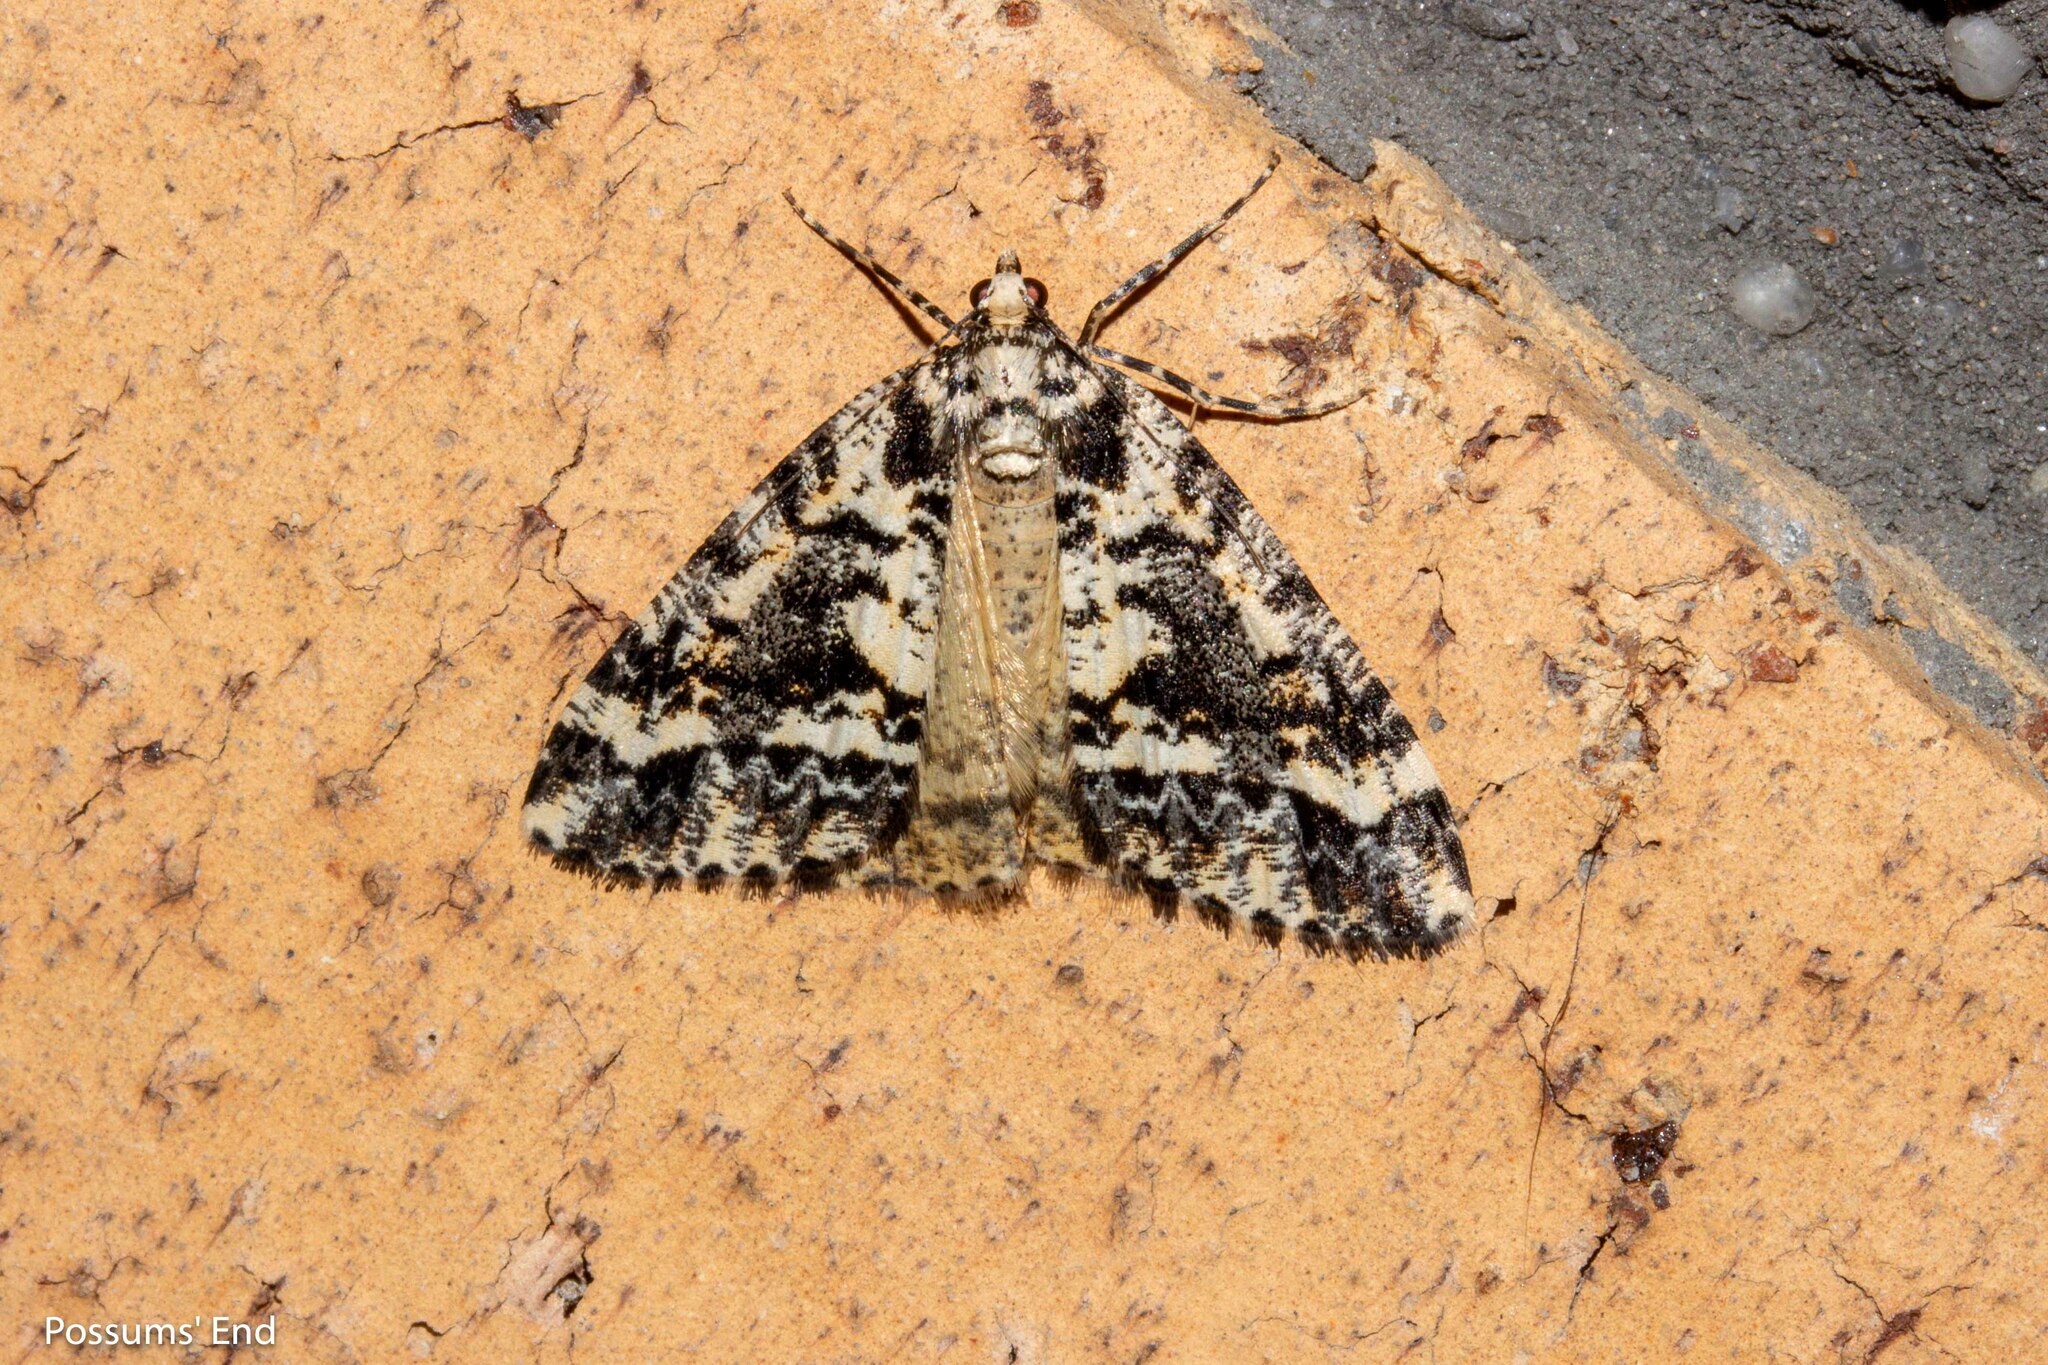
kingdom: Animalia
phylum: Arthropoda
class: Insecta
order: Lepidoptera
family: Geometridae
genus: Pseudocoremia
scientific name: Pseudocoremia leucelaea
